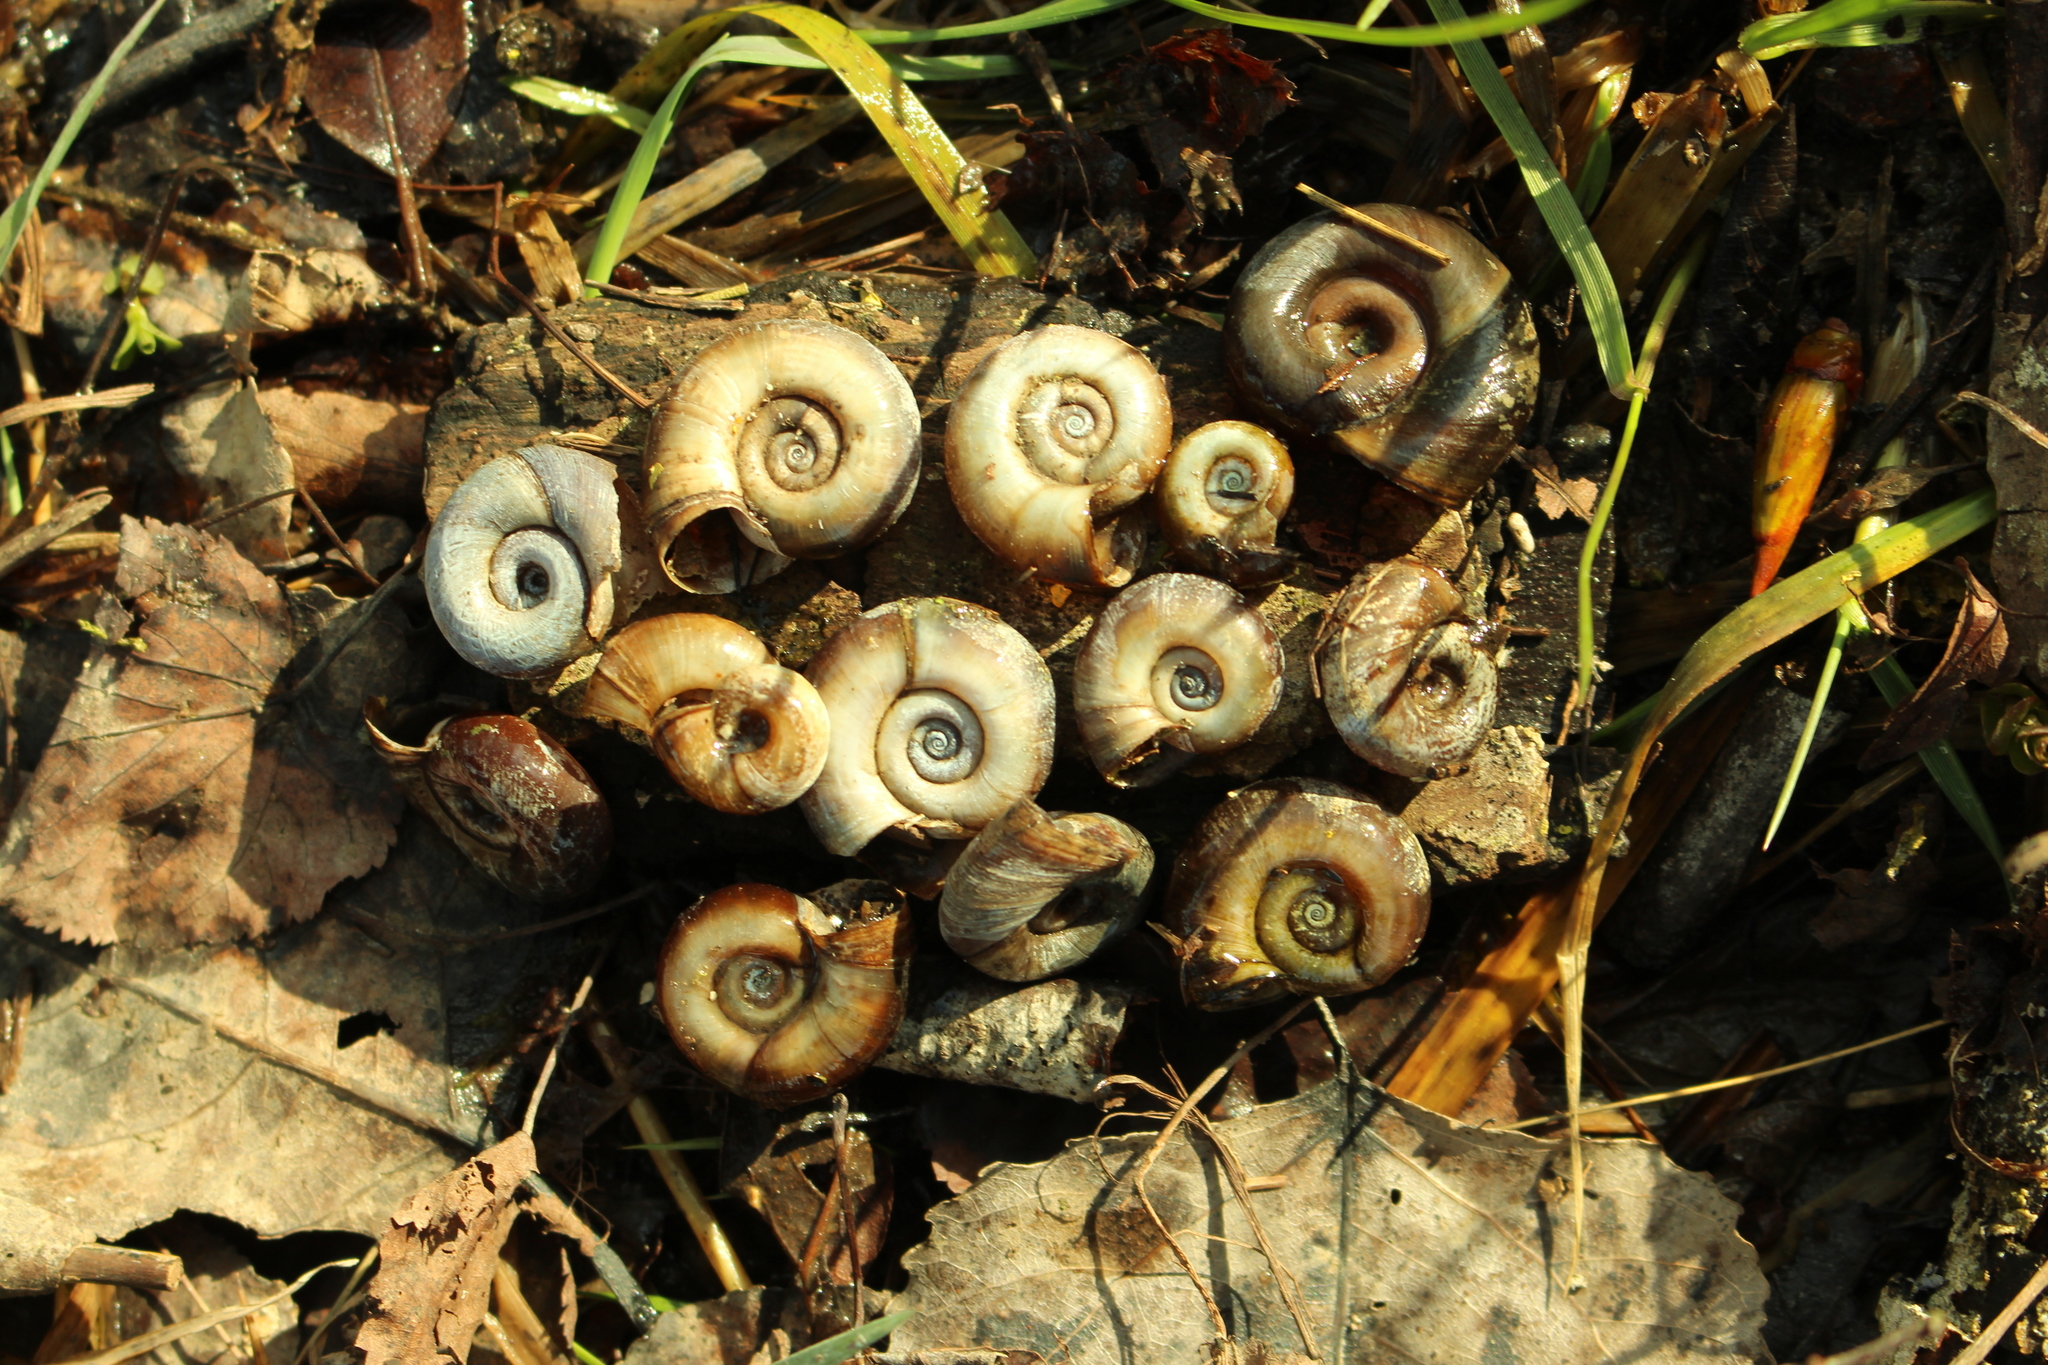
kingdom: Animalia
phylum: Mollusca
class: Gastropoda
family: Planorbidae
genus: Planorbarius
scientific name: Planorbarius corneus
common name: Great ramshorn
